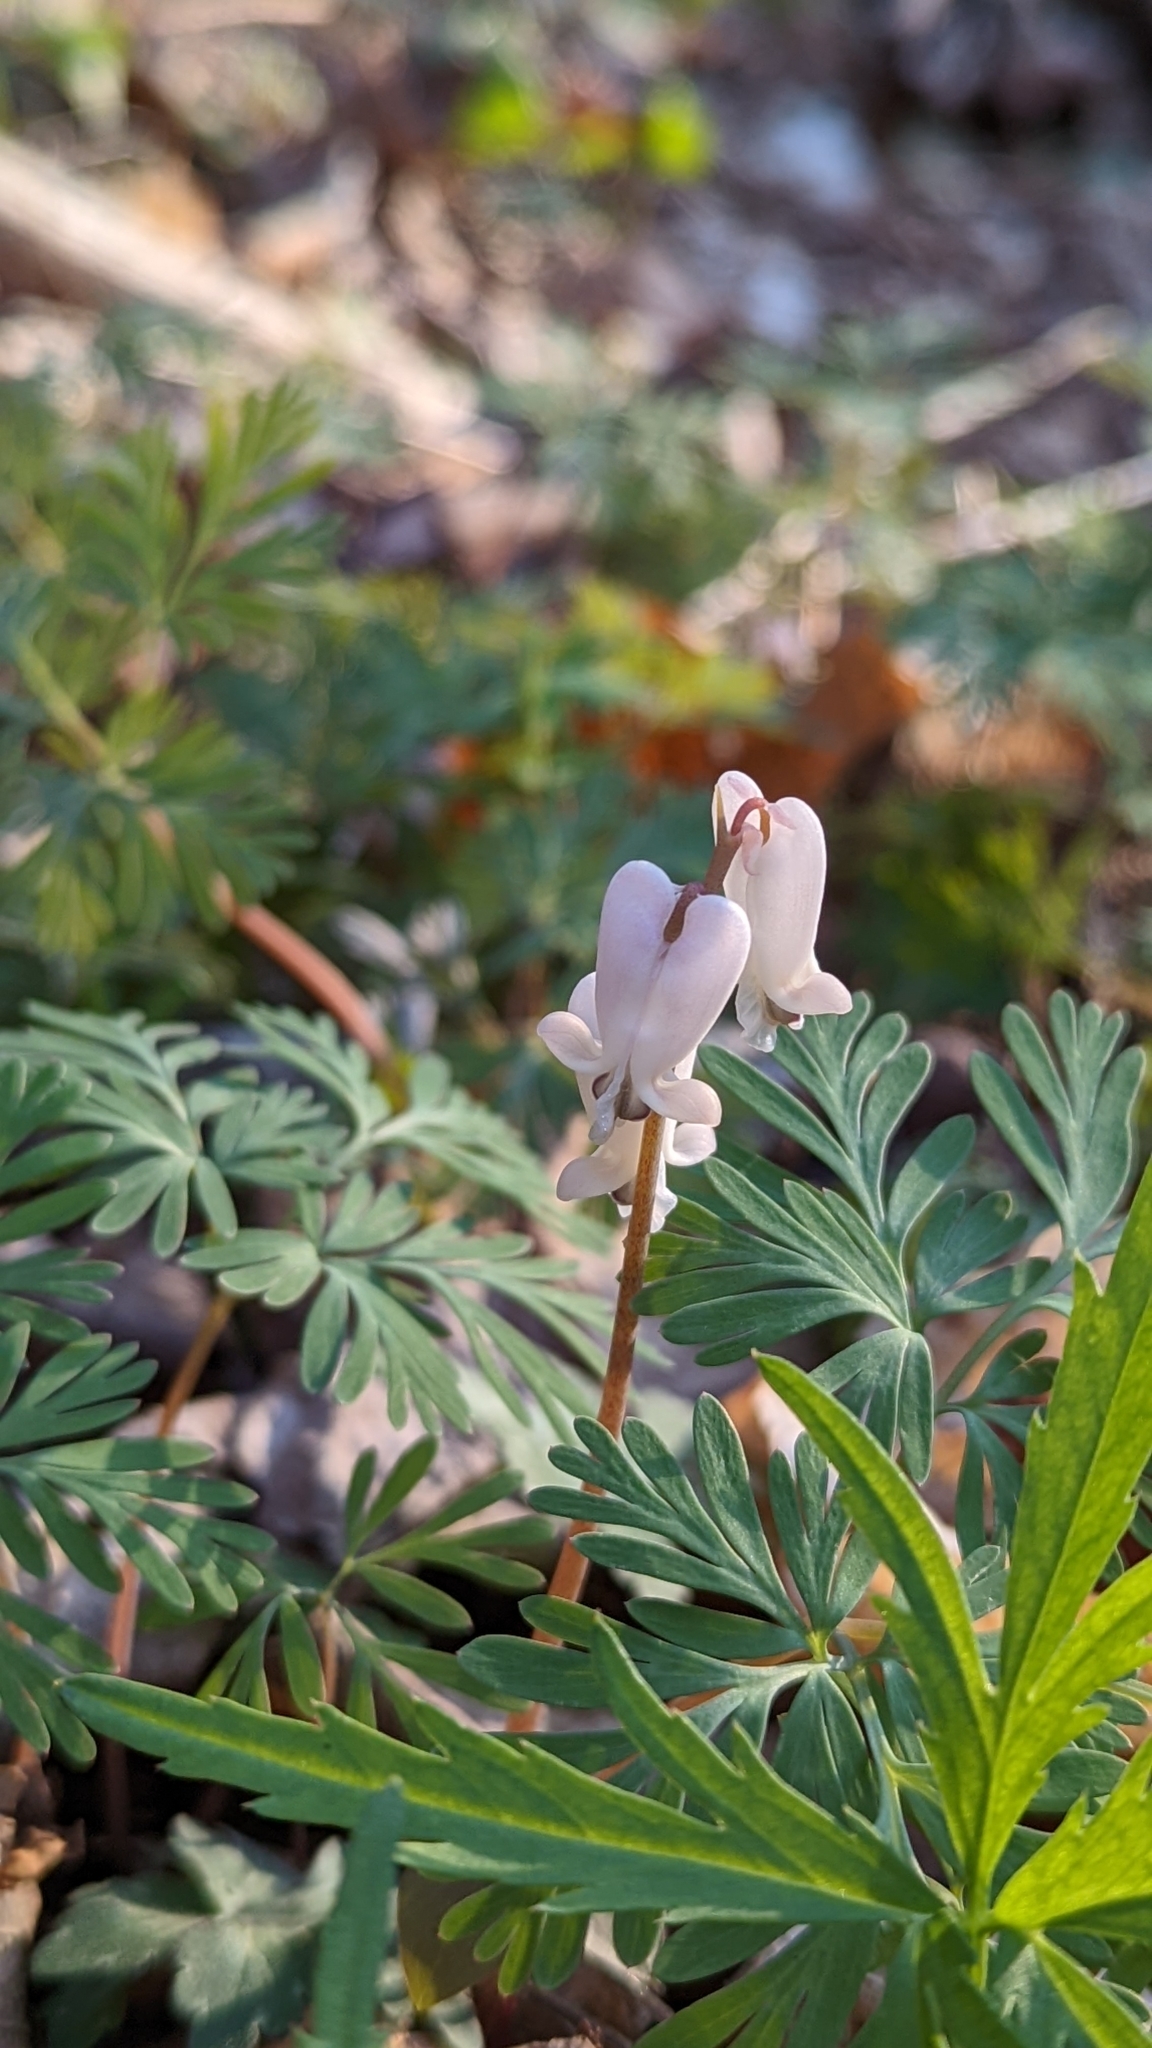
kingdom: Plantae
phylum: Tracheophyta
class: Magnoliopsida
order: Ranunculales
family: Papaveraceae
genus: Dicentra
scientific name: Dicentra canadensis
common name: Squirrel-corn
